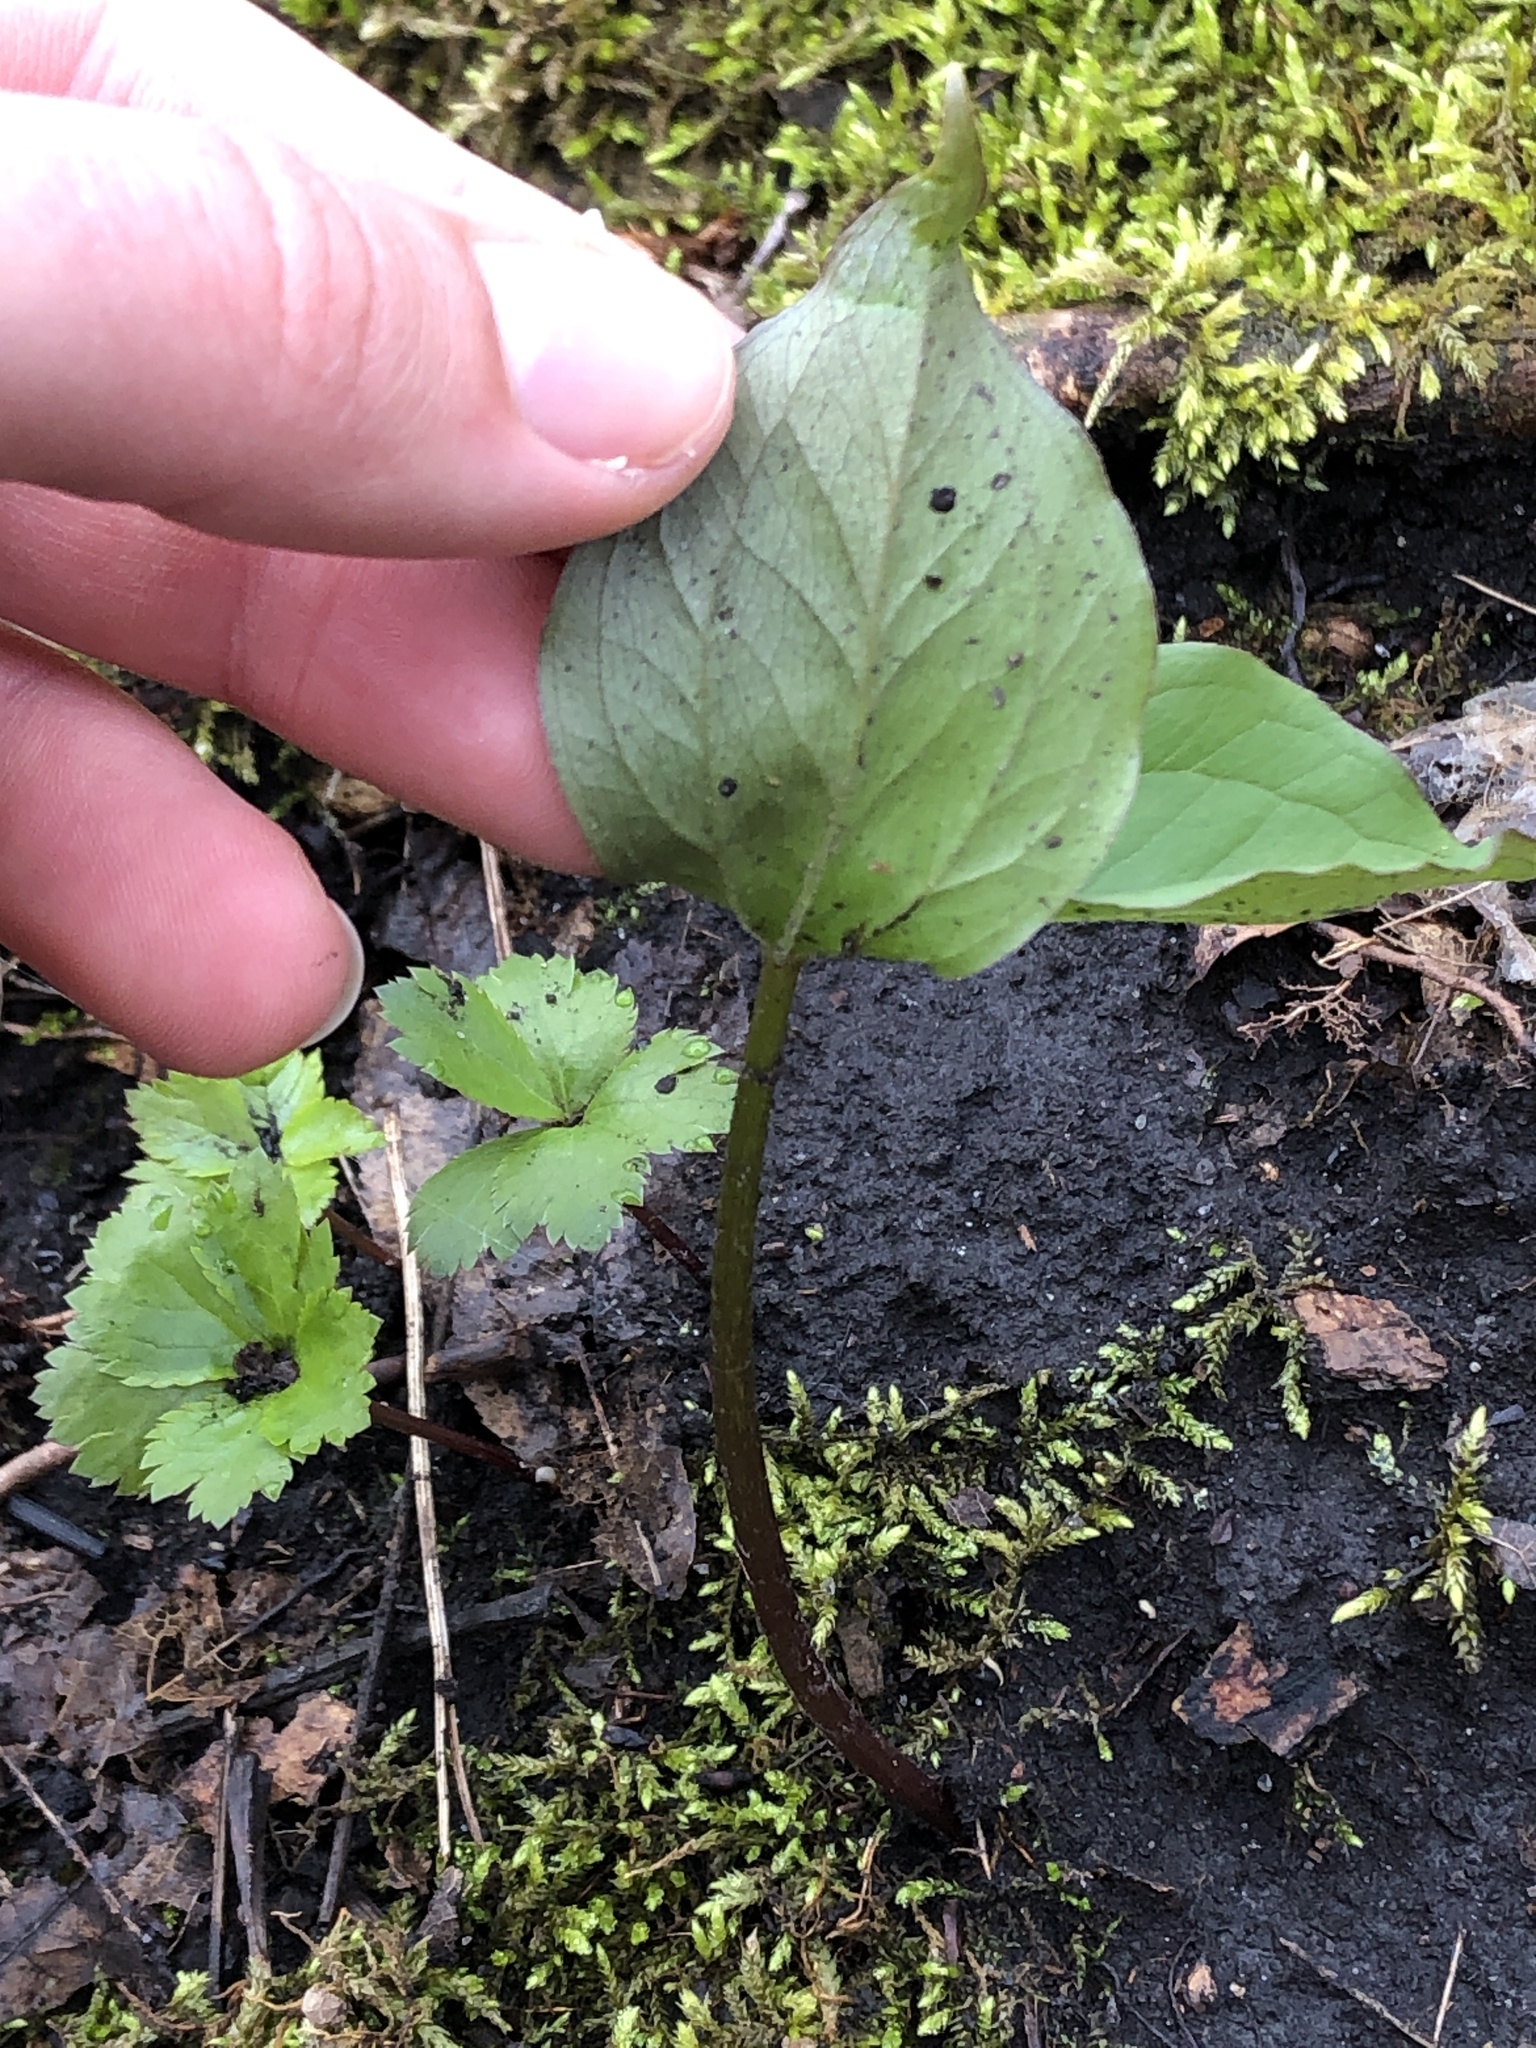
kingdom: Plantae
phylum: Tracheophyta
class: Liliopsida
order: Liliales
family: Melanthiaceae
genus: Trillium
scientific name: Trillium grandiflorum
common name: Great white trillium
